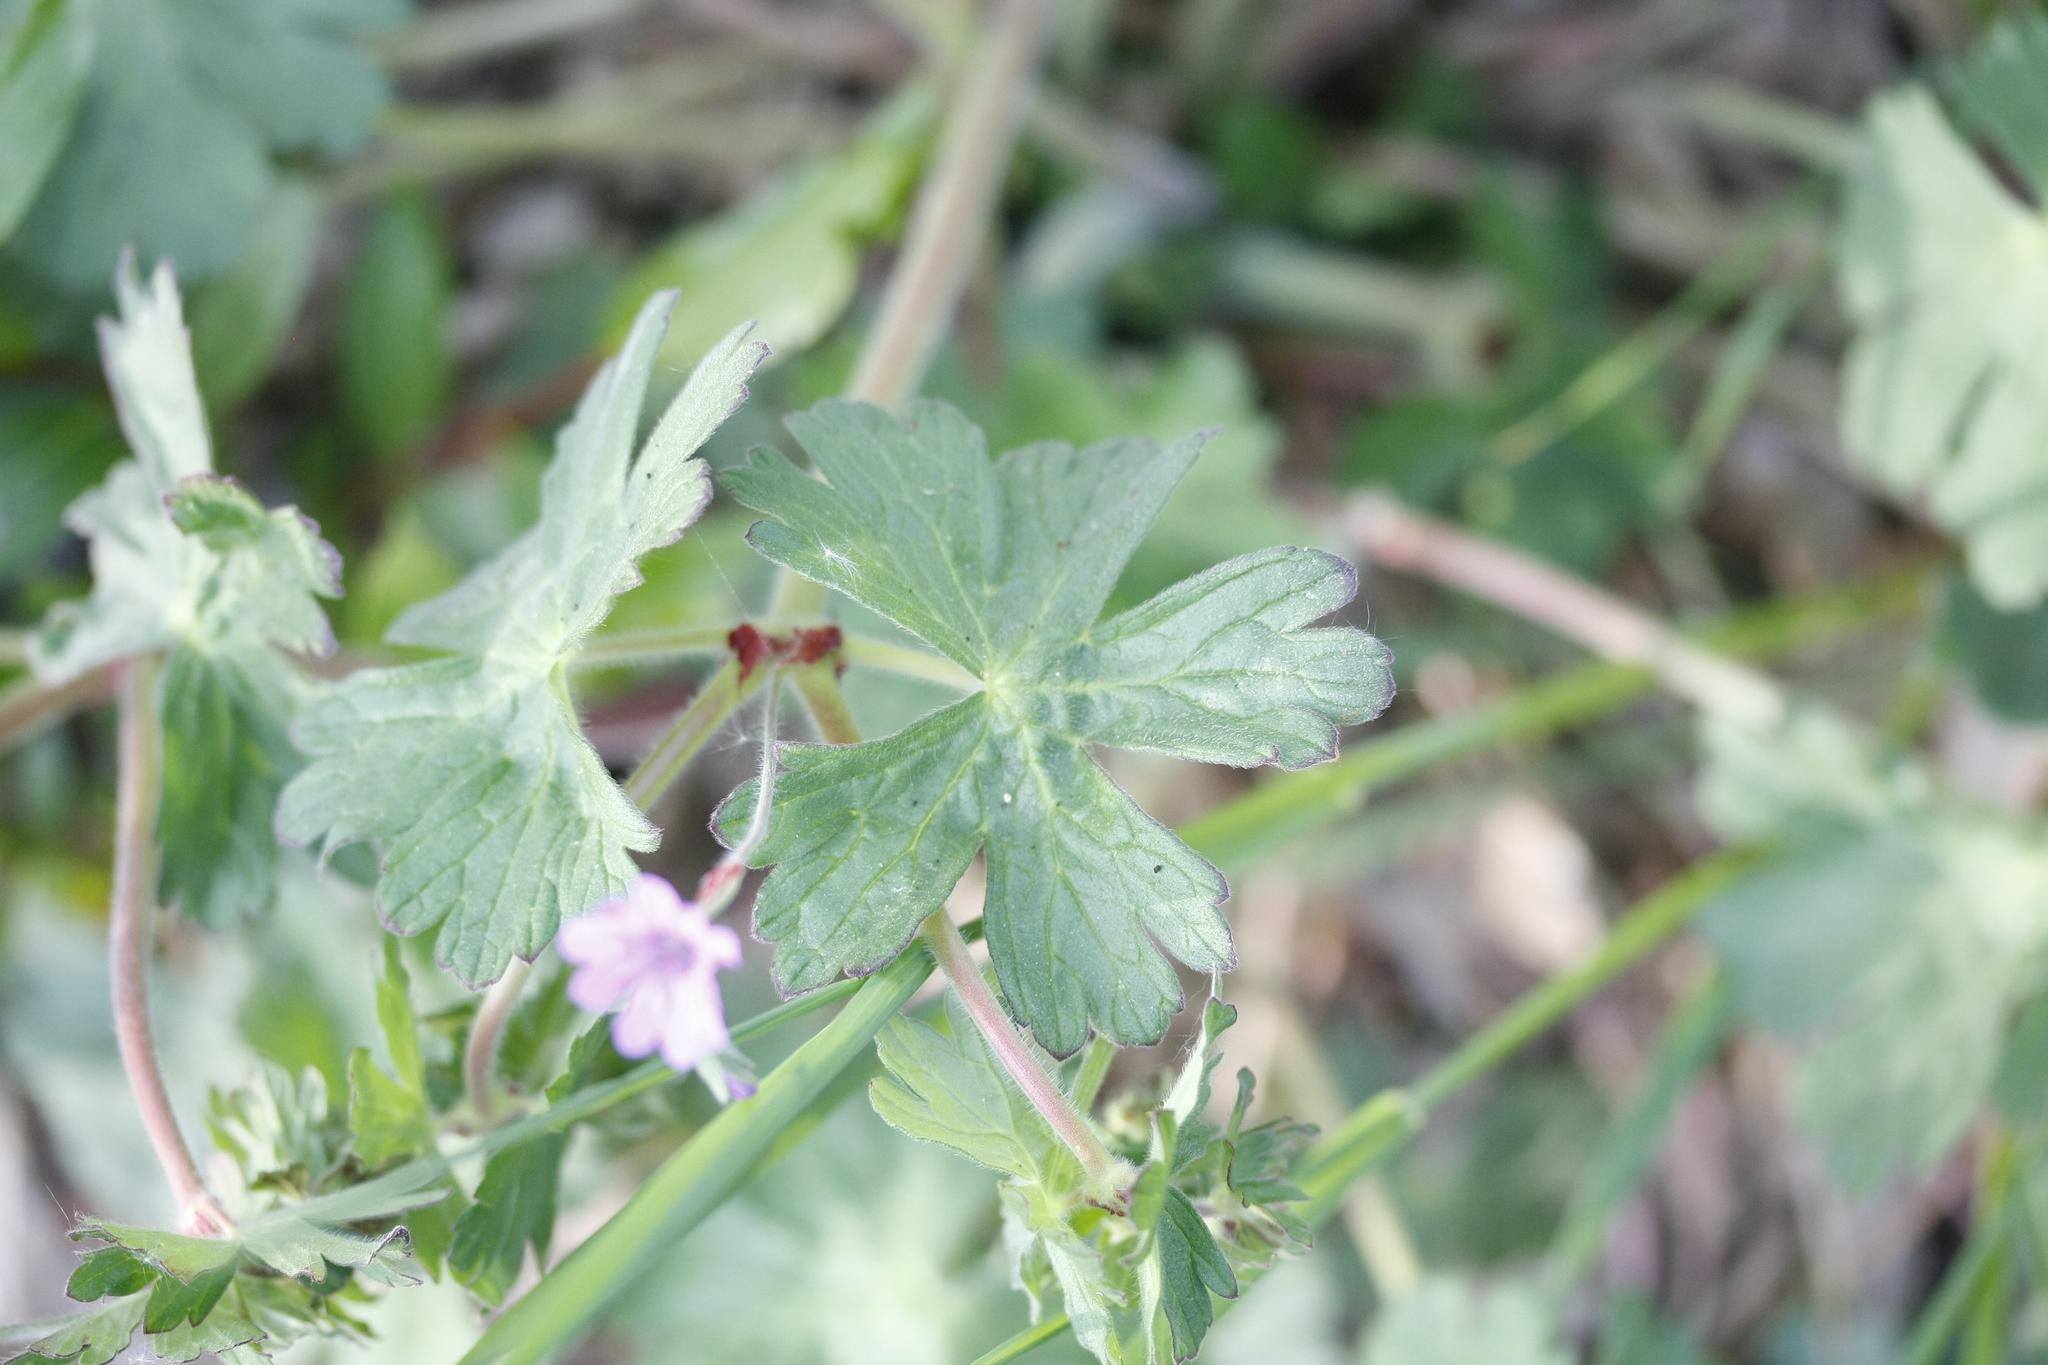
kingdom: Plantae
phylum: Tracheophyta
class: Magnoliopsida
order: Geraniales
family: Geraniaceae
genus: Geranium
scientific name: Geranium pusillum
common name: Small geranium
